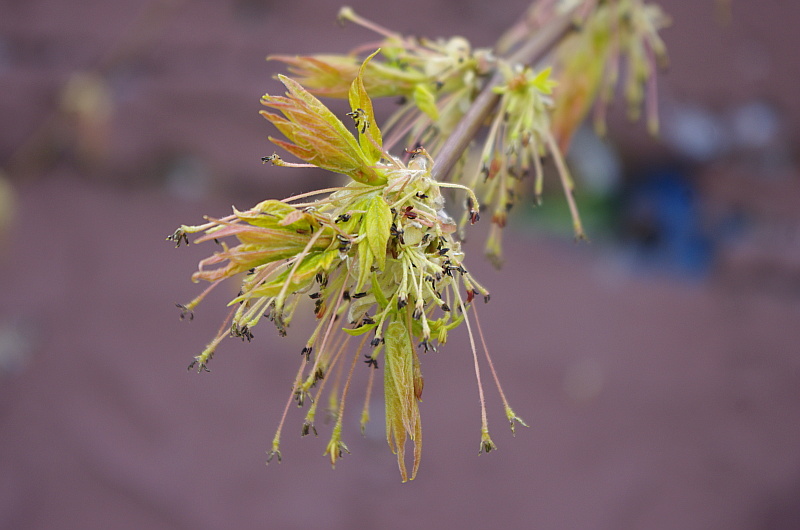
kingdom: Plantae
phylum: Tracheophyta
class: Magnoliopsida
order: Sapindales
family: Sapindaceae
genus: Acer
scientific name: Acer negundo
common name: Ashleaf maple
